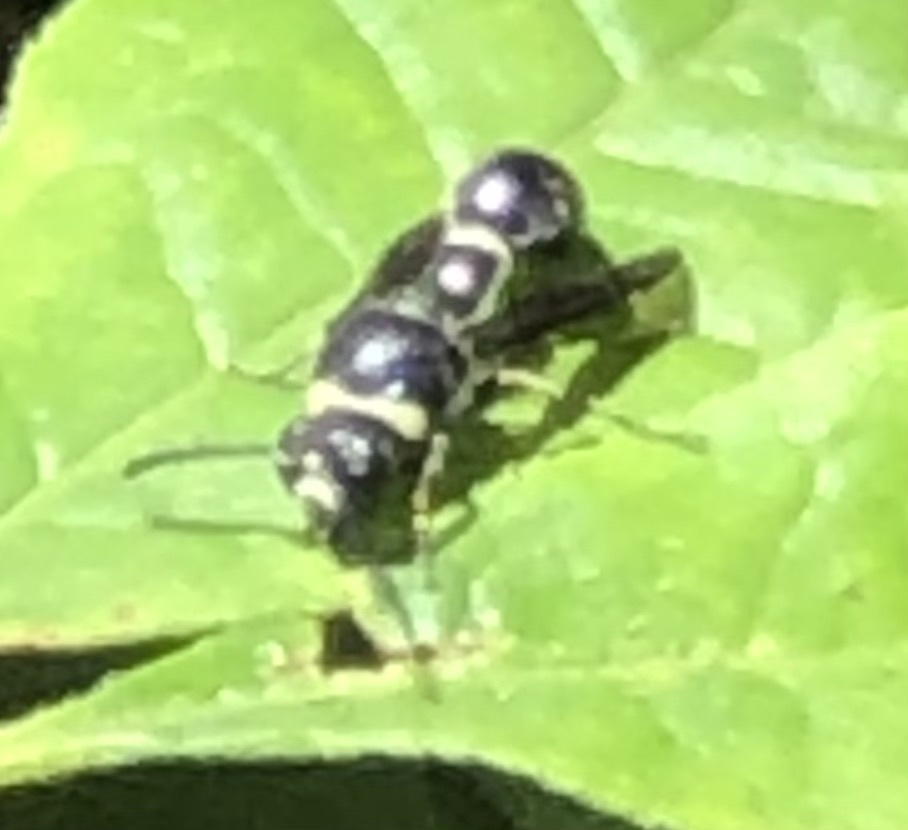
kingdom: Animalia
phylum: Arthropoda
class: Insecta
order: Hymenoptera
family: Vespidae
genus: Eumenes
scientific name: Eumenes fraternus
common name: Fraternal potter wasp
